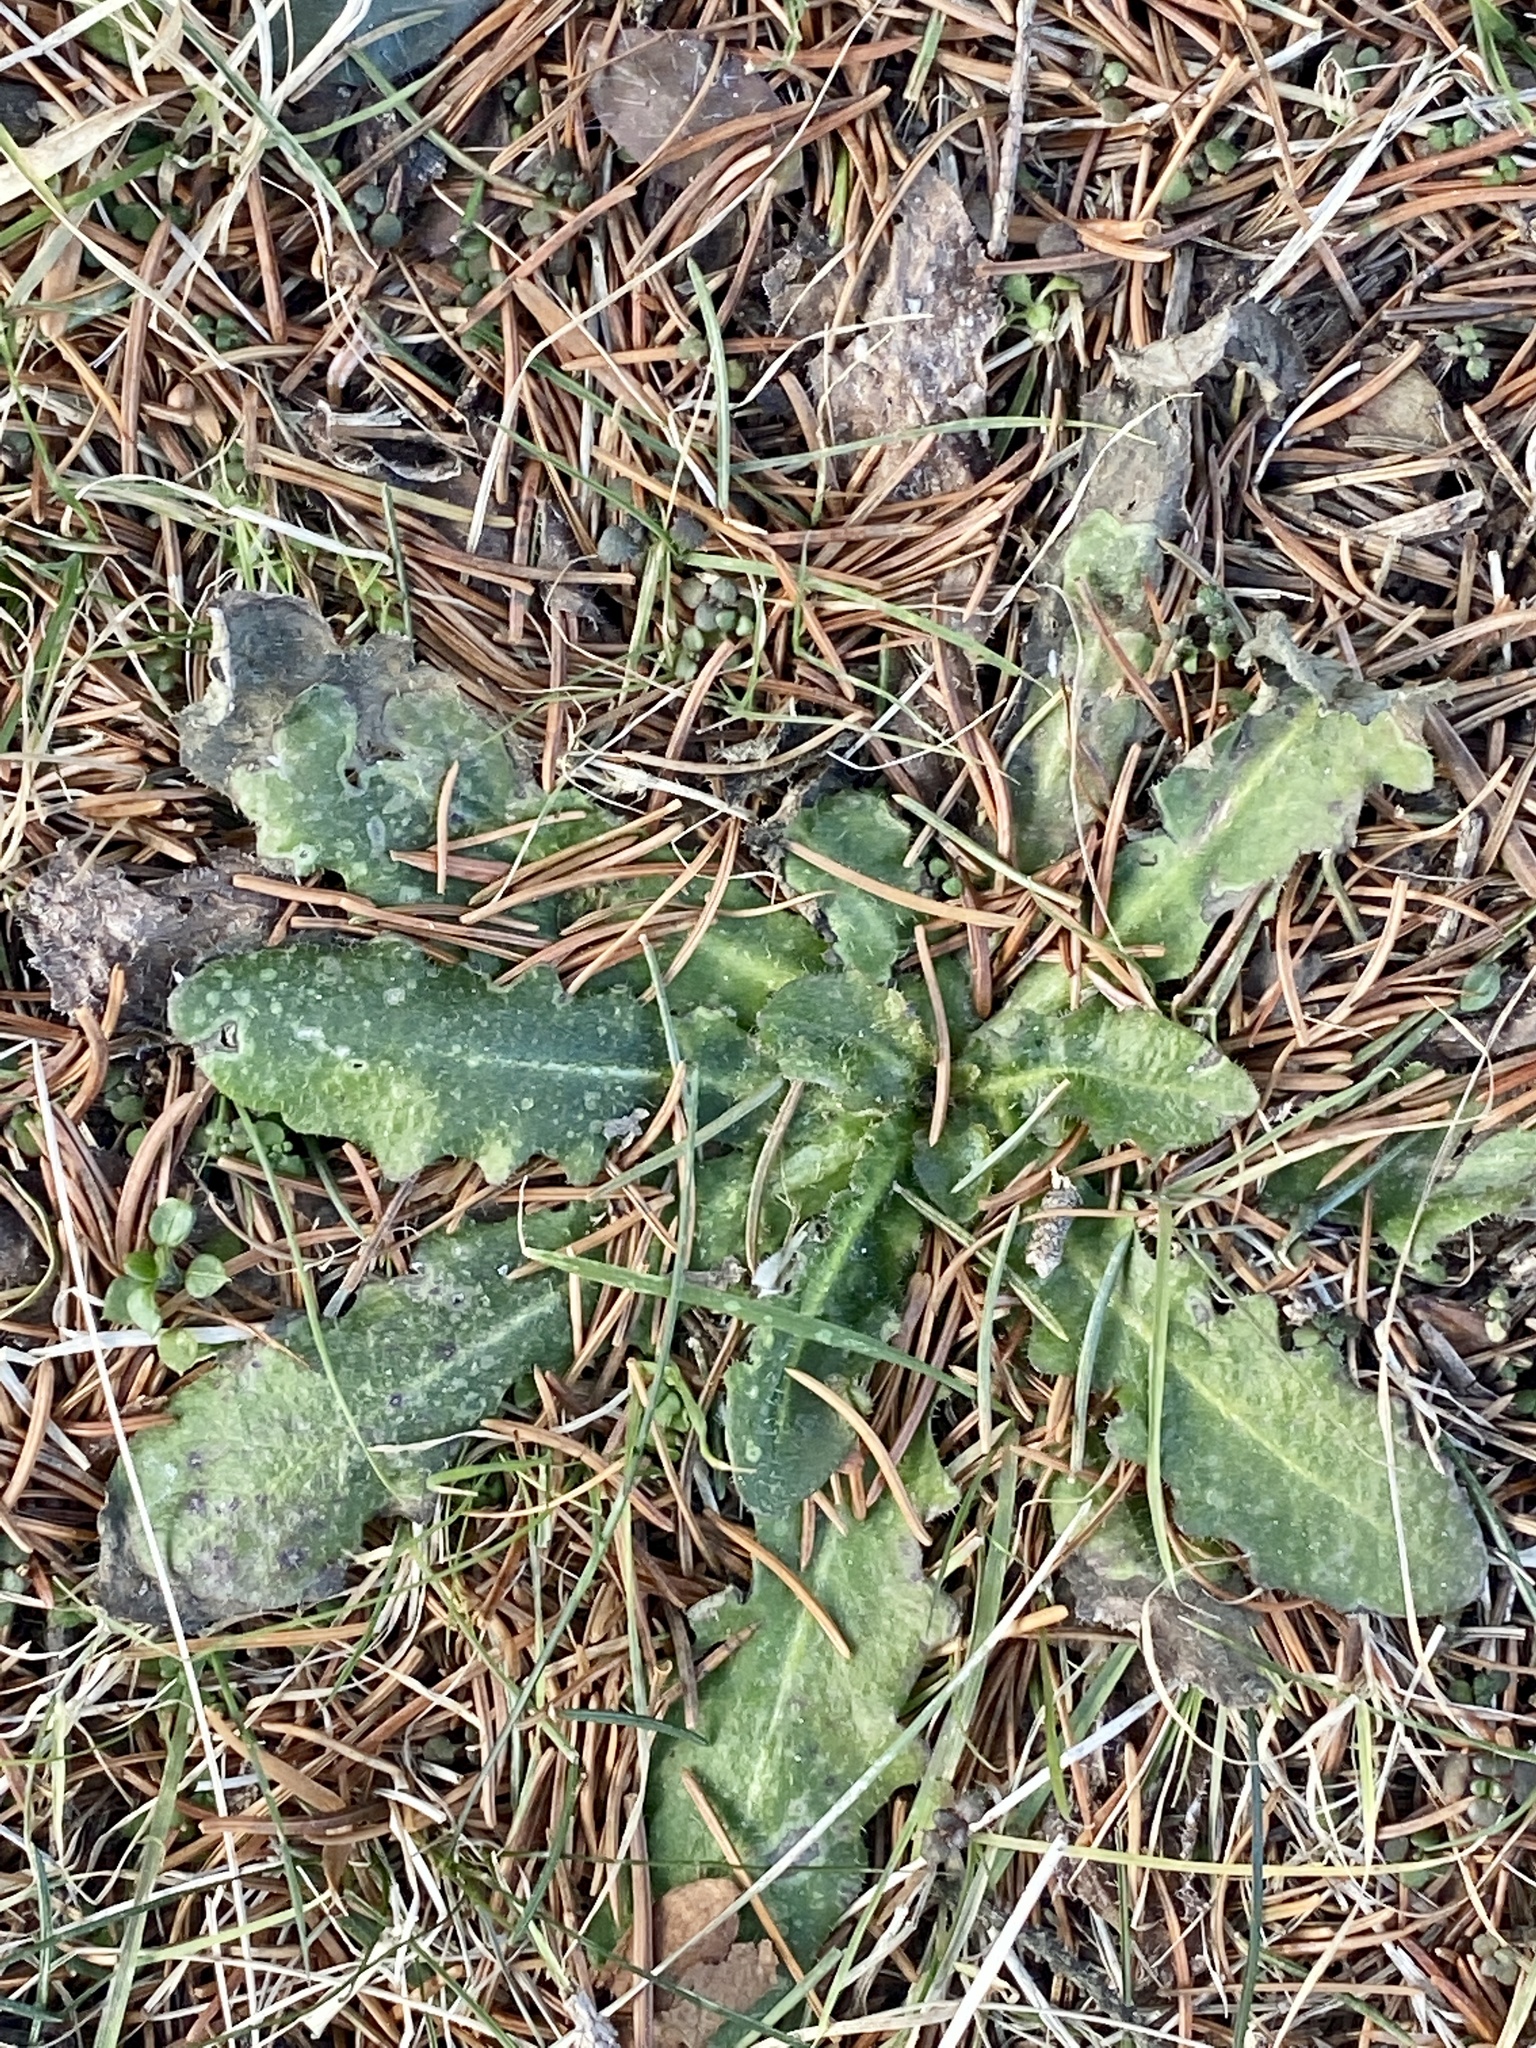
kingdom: Plantae
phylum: Tracheophyta
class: Magnoliopsida
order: Asterales
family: Asteraceae
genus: Hypochaeris
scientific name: Hypochaeris radicata
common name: Flatweed
